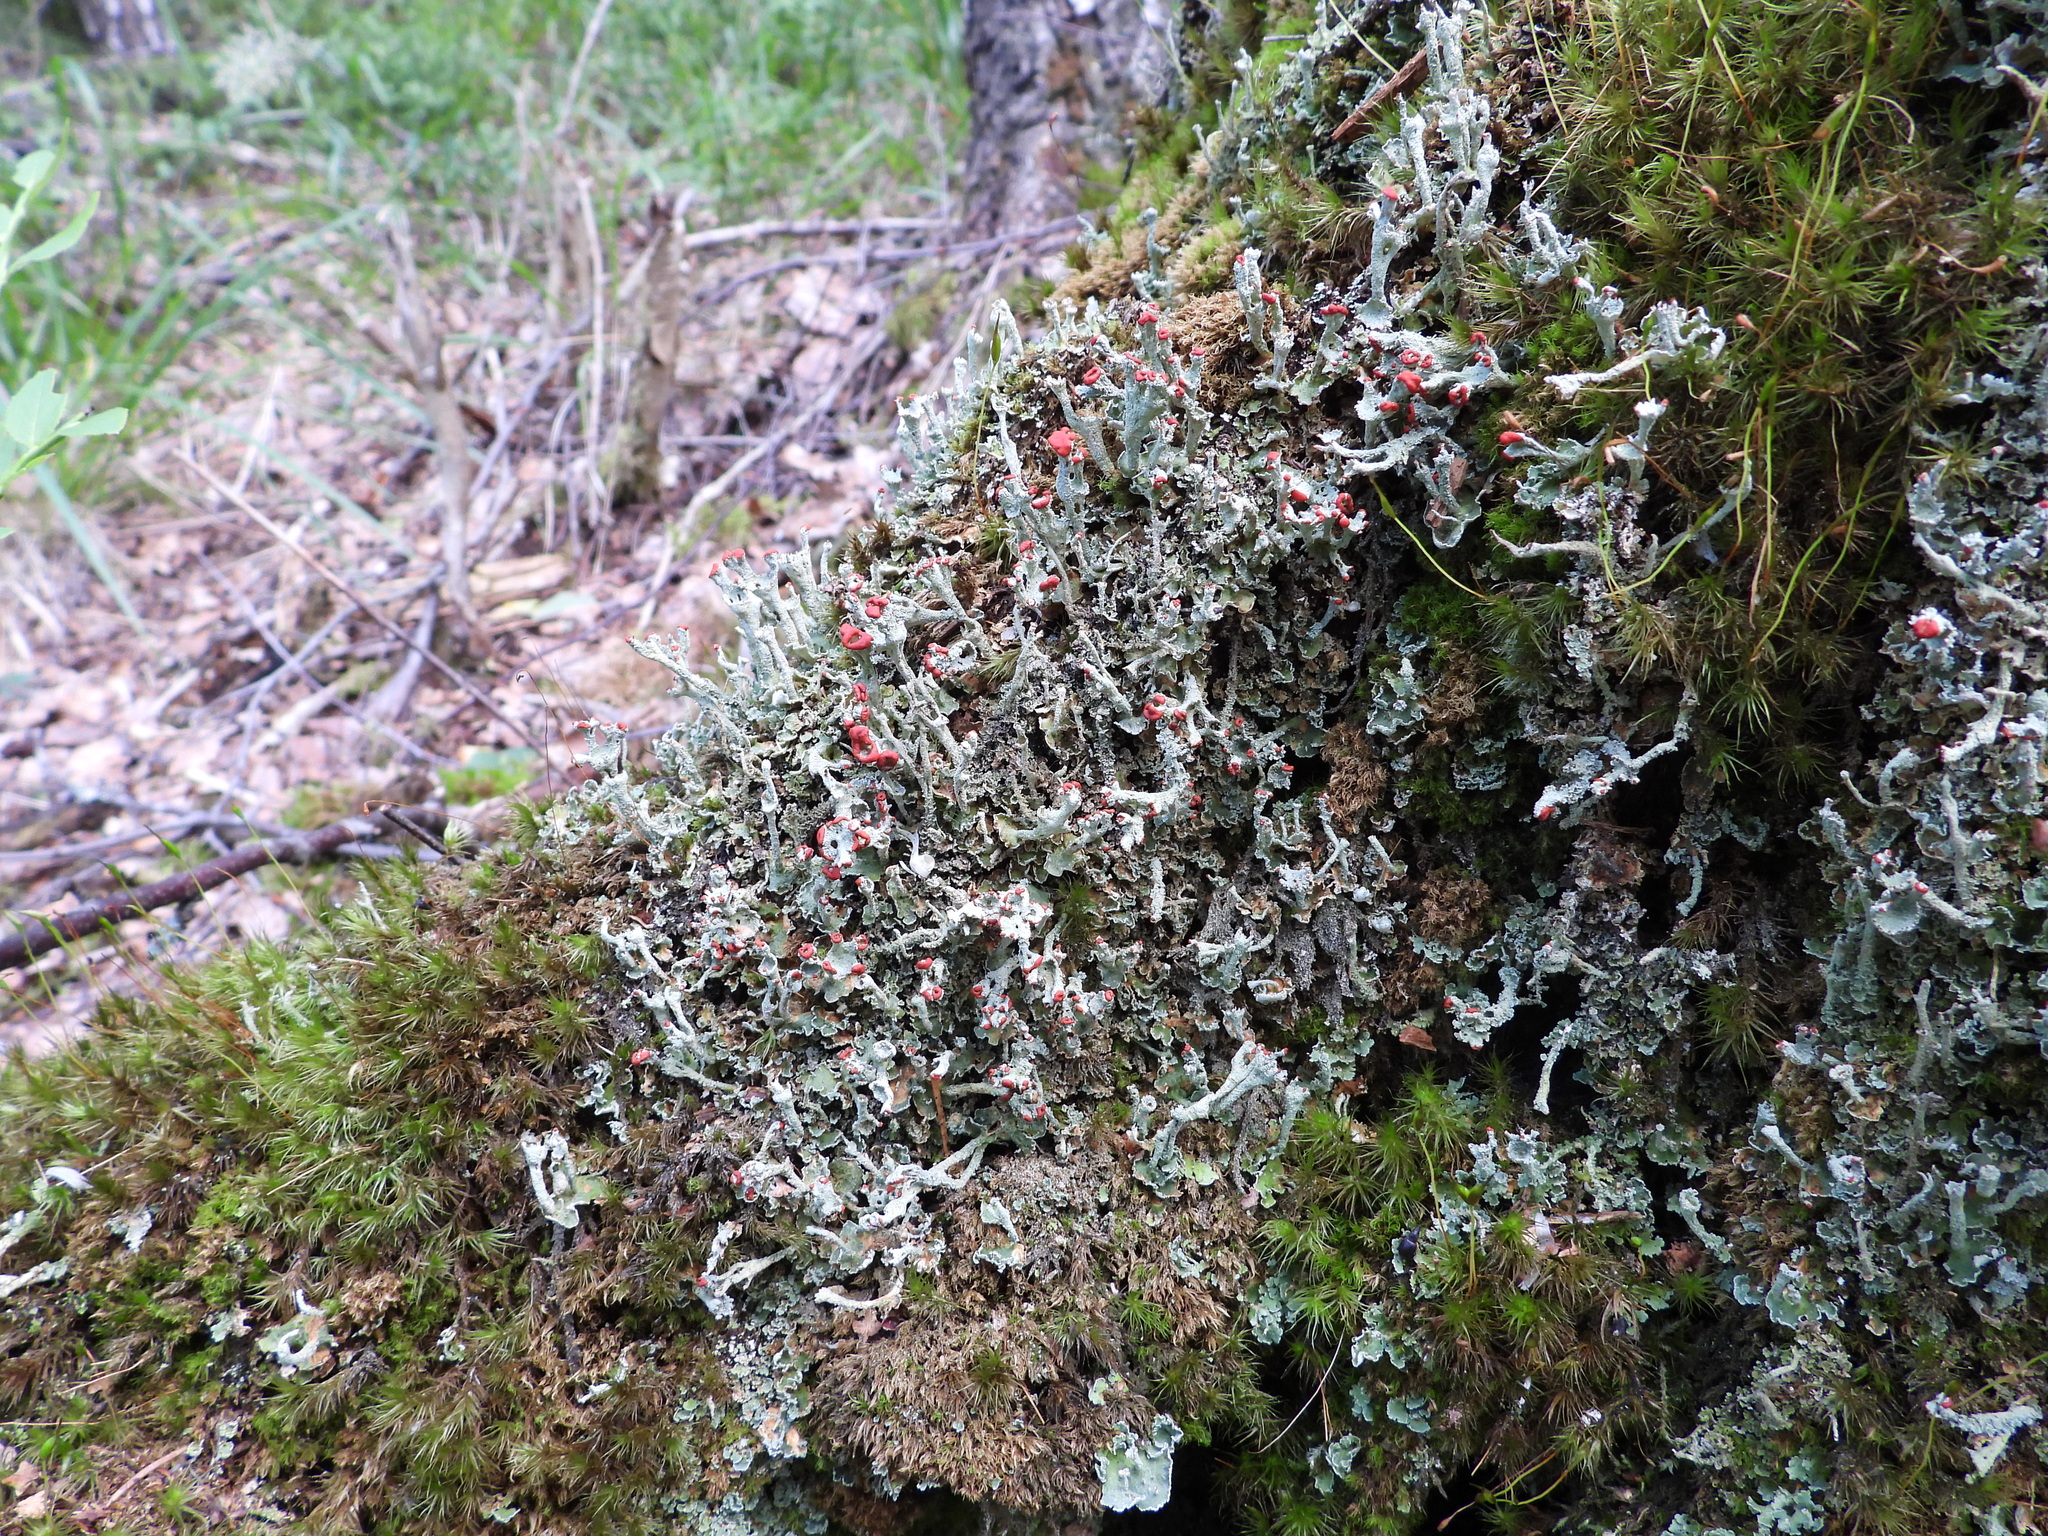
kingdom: Fungi
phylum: Ascomycota
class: Lecanoromycetes
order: Lecanorales
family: Cladoniaceae
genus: Cladonia
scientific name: Cladonia digitata
